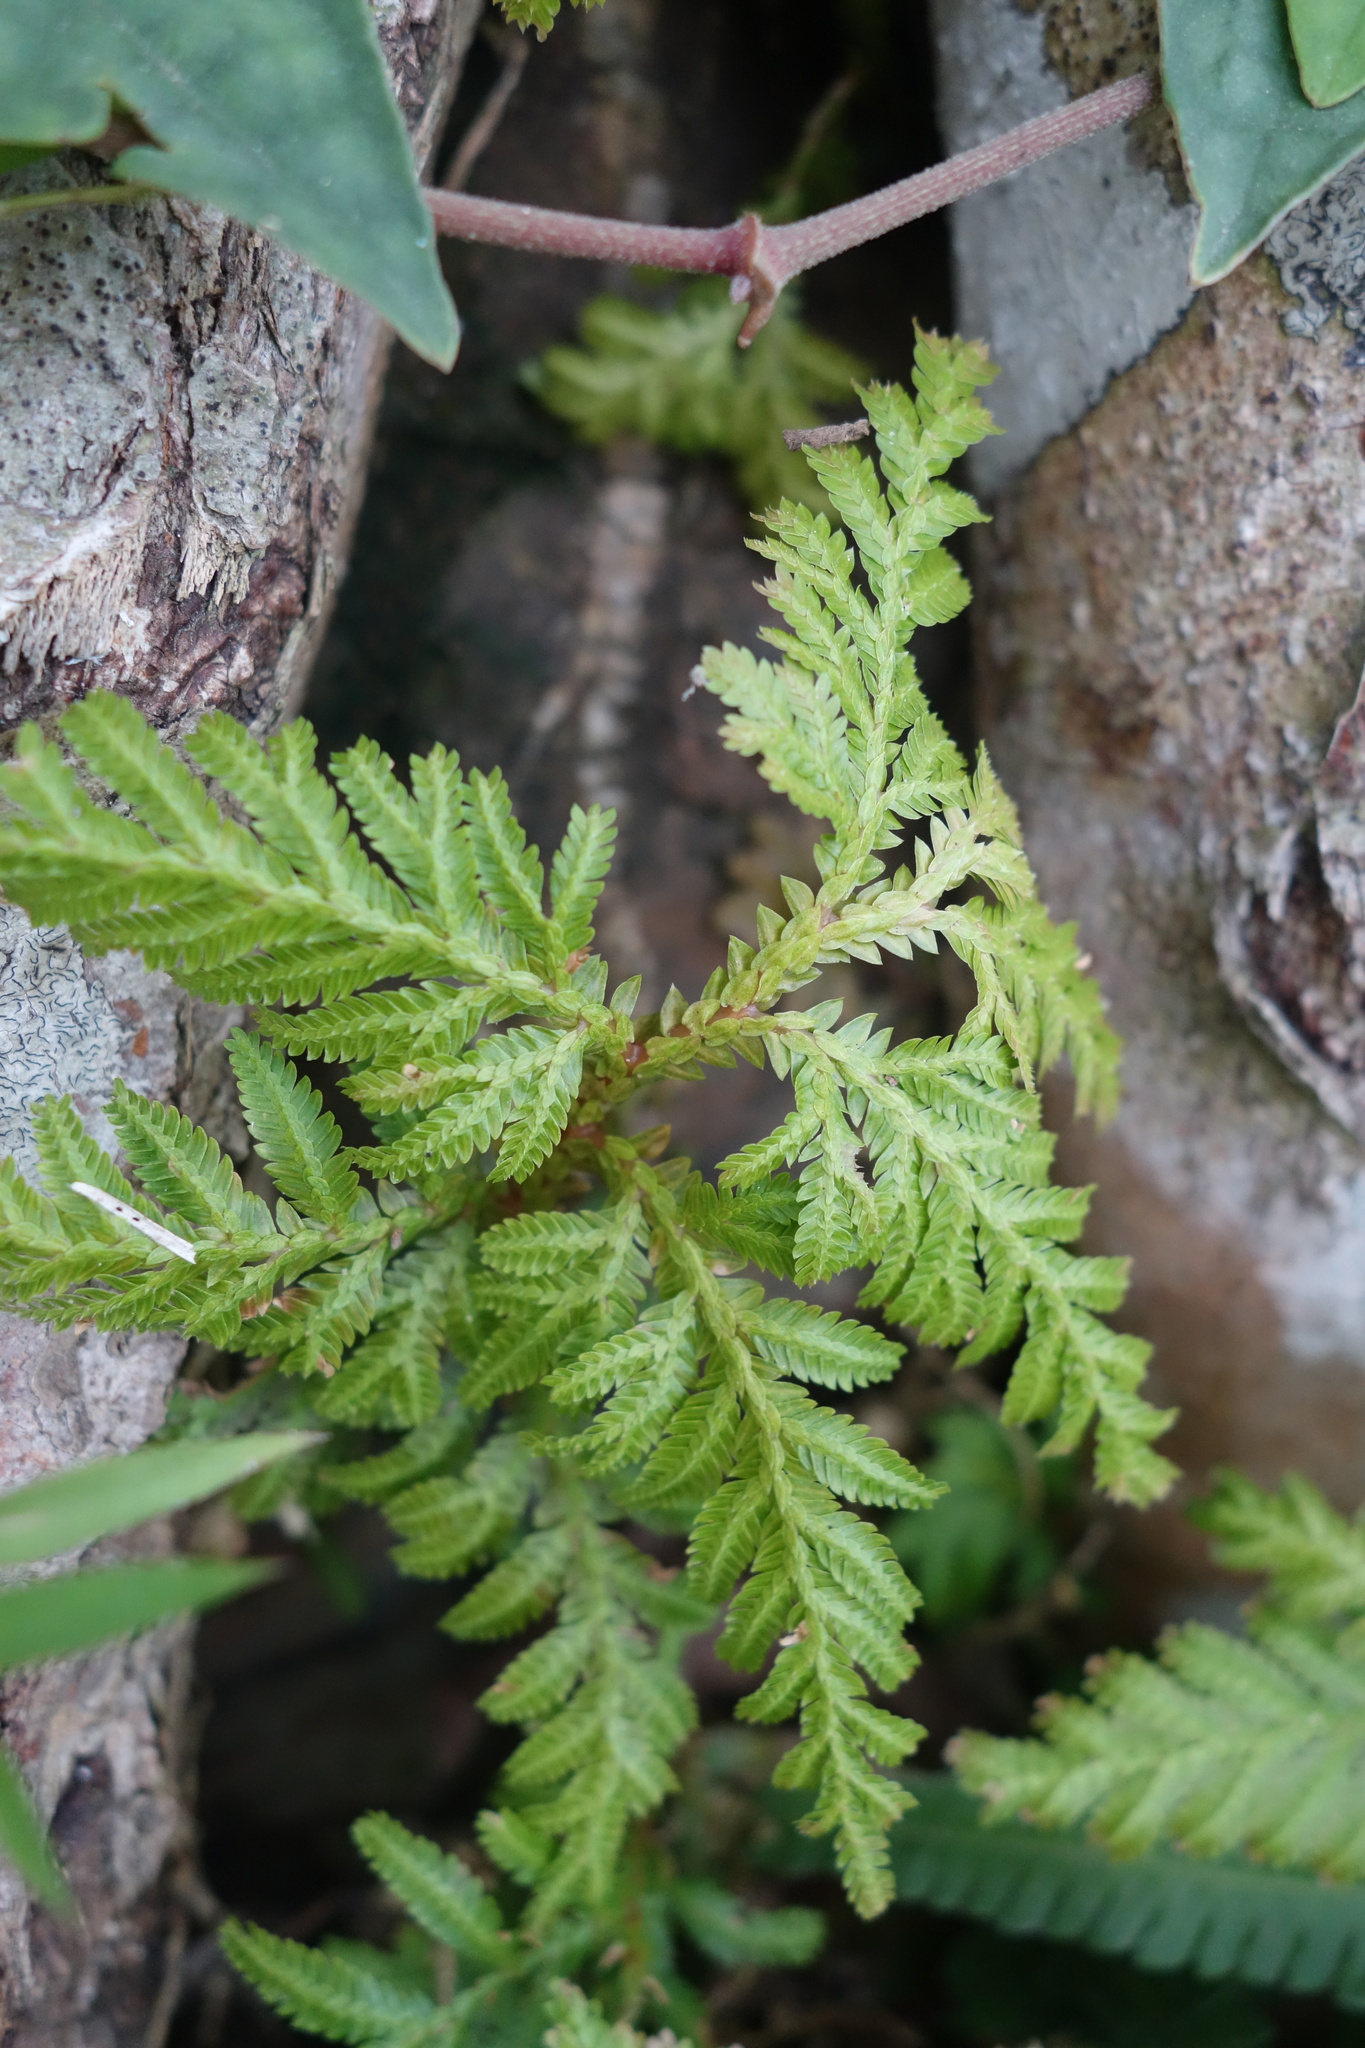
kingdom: Plantae
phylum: Tracheophyta
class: Lycopodiopsida
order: Selaginellales
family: Selaginellaceae
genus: Selaginella
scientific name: Selaginella delicatula
